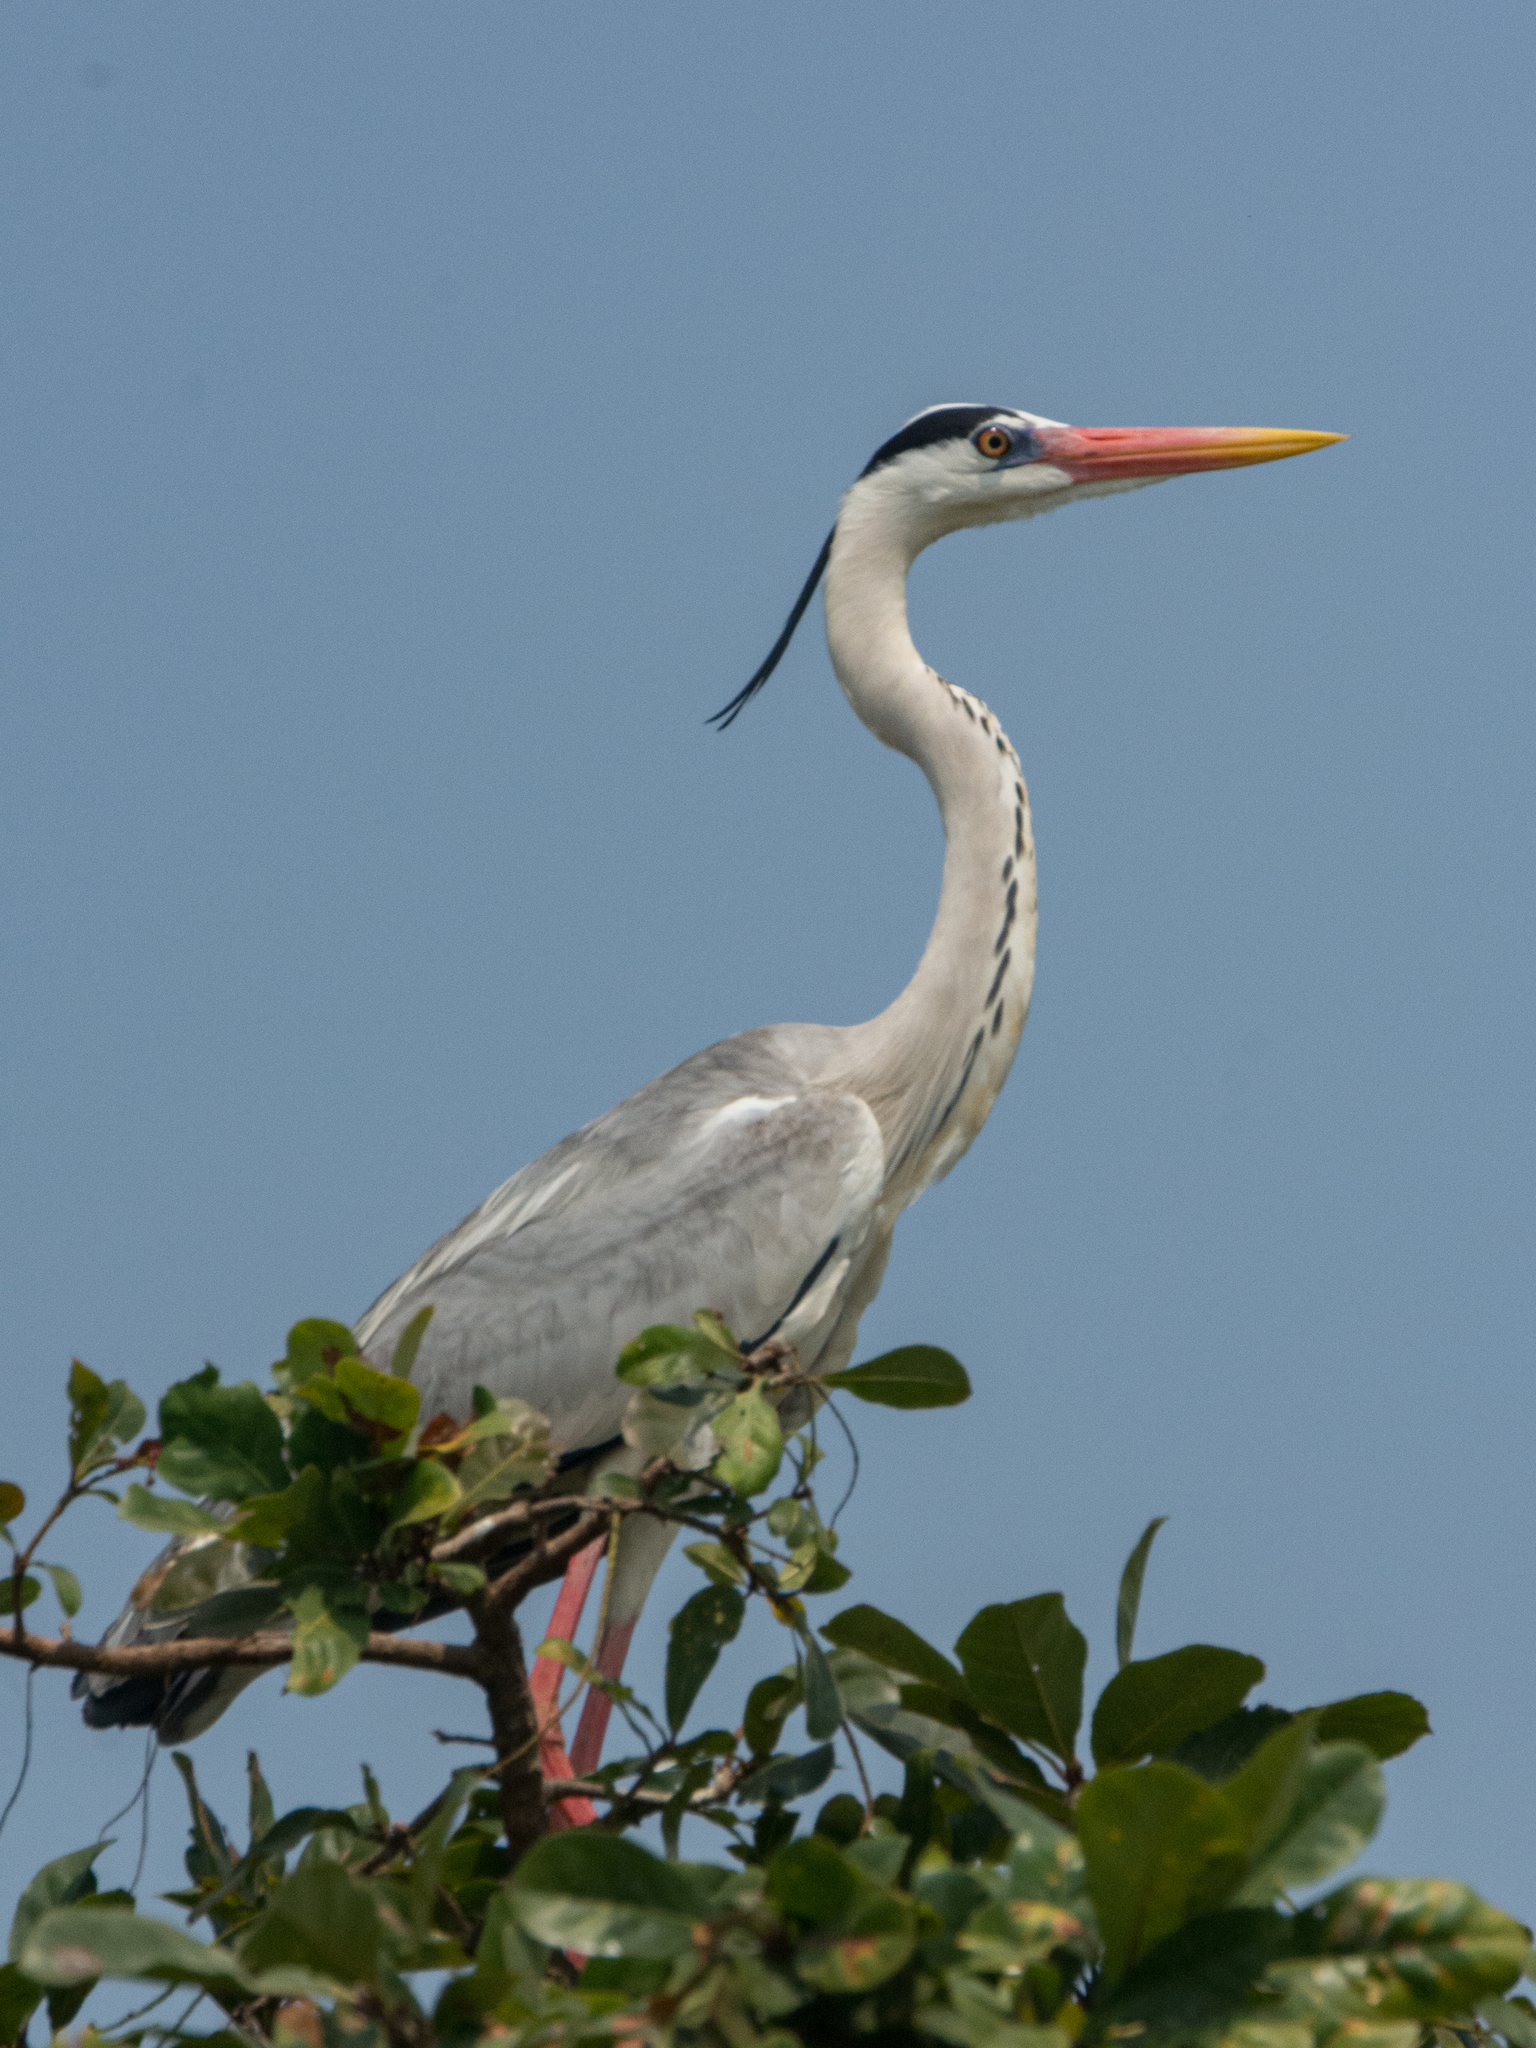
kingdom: Animalia
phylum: Chordata
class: Aves
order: Pelecaniformes
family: Ardeidae
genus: Ardea
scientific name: Ardea cinerea
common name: Grey heron
